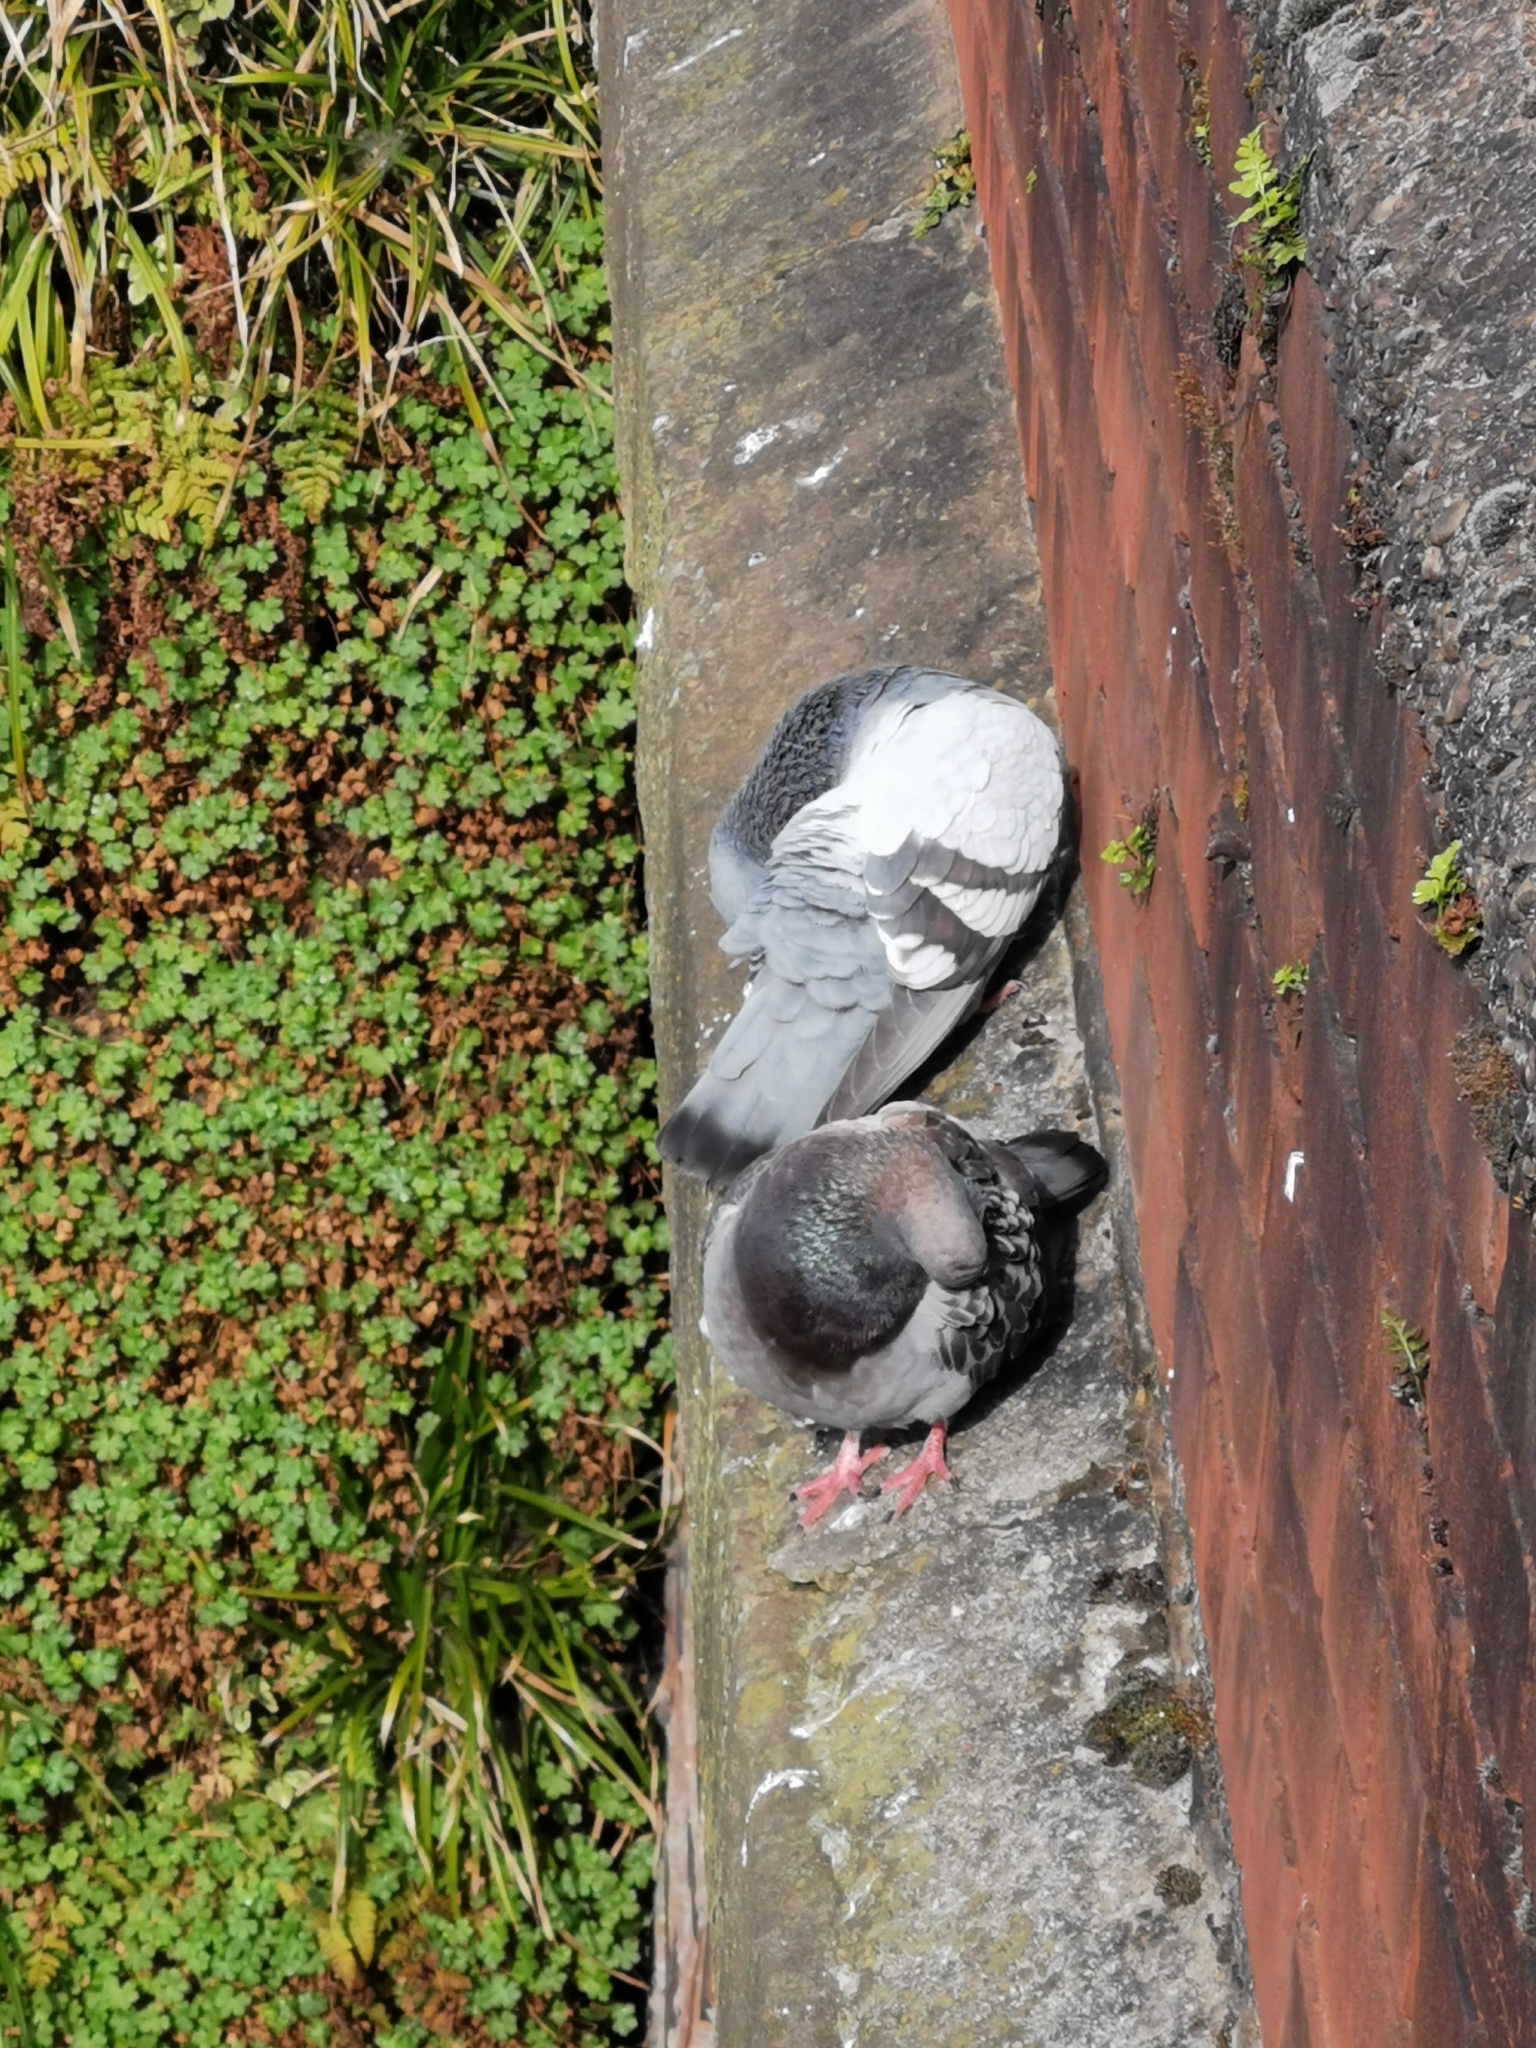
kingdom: Animalia
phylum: Chordata
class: Aves
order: Columbiformes
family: Columbidae
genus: Columba
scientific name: Columba livia
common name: Rock pigeon
